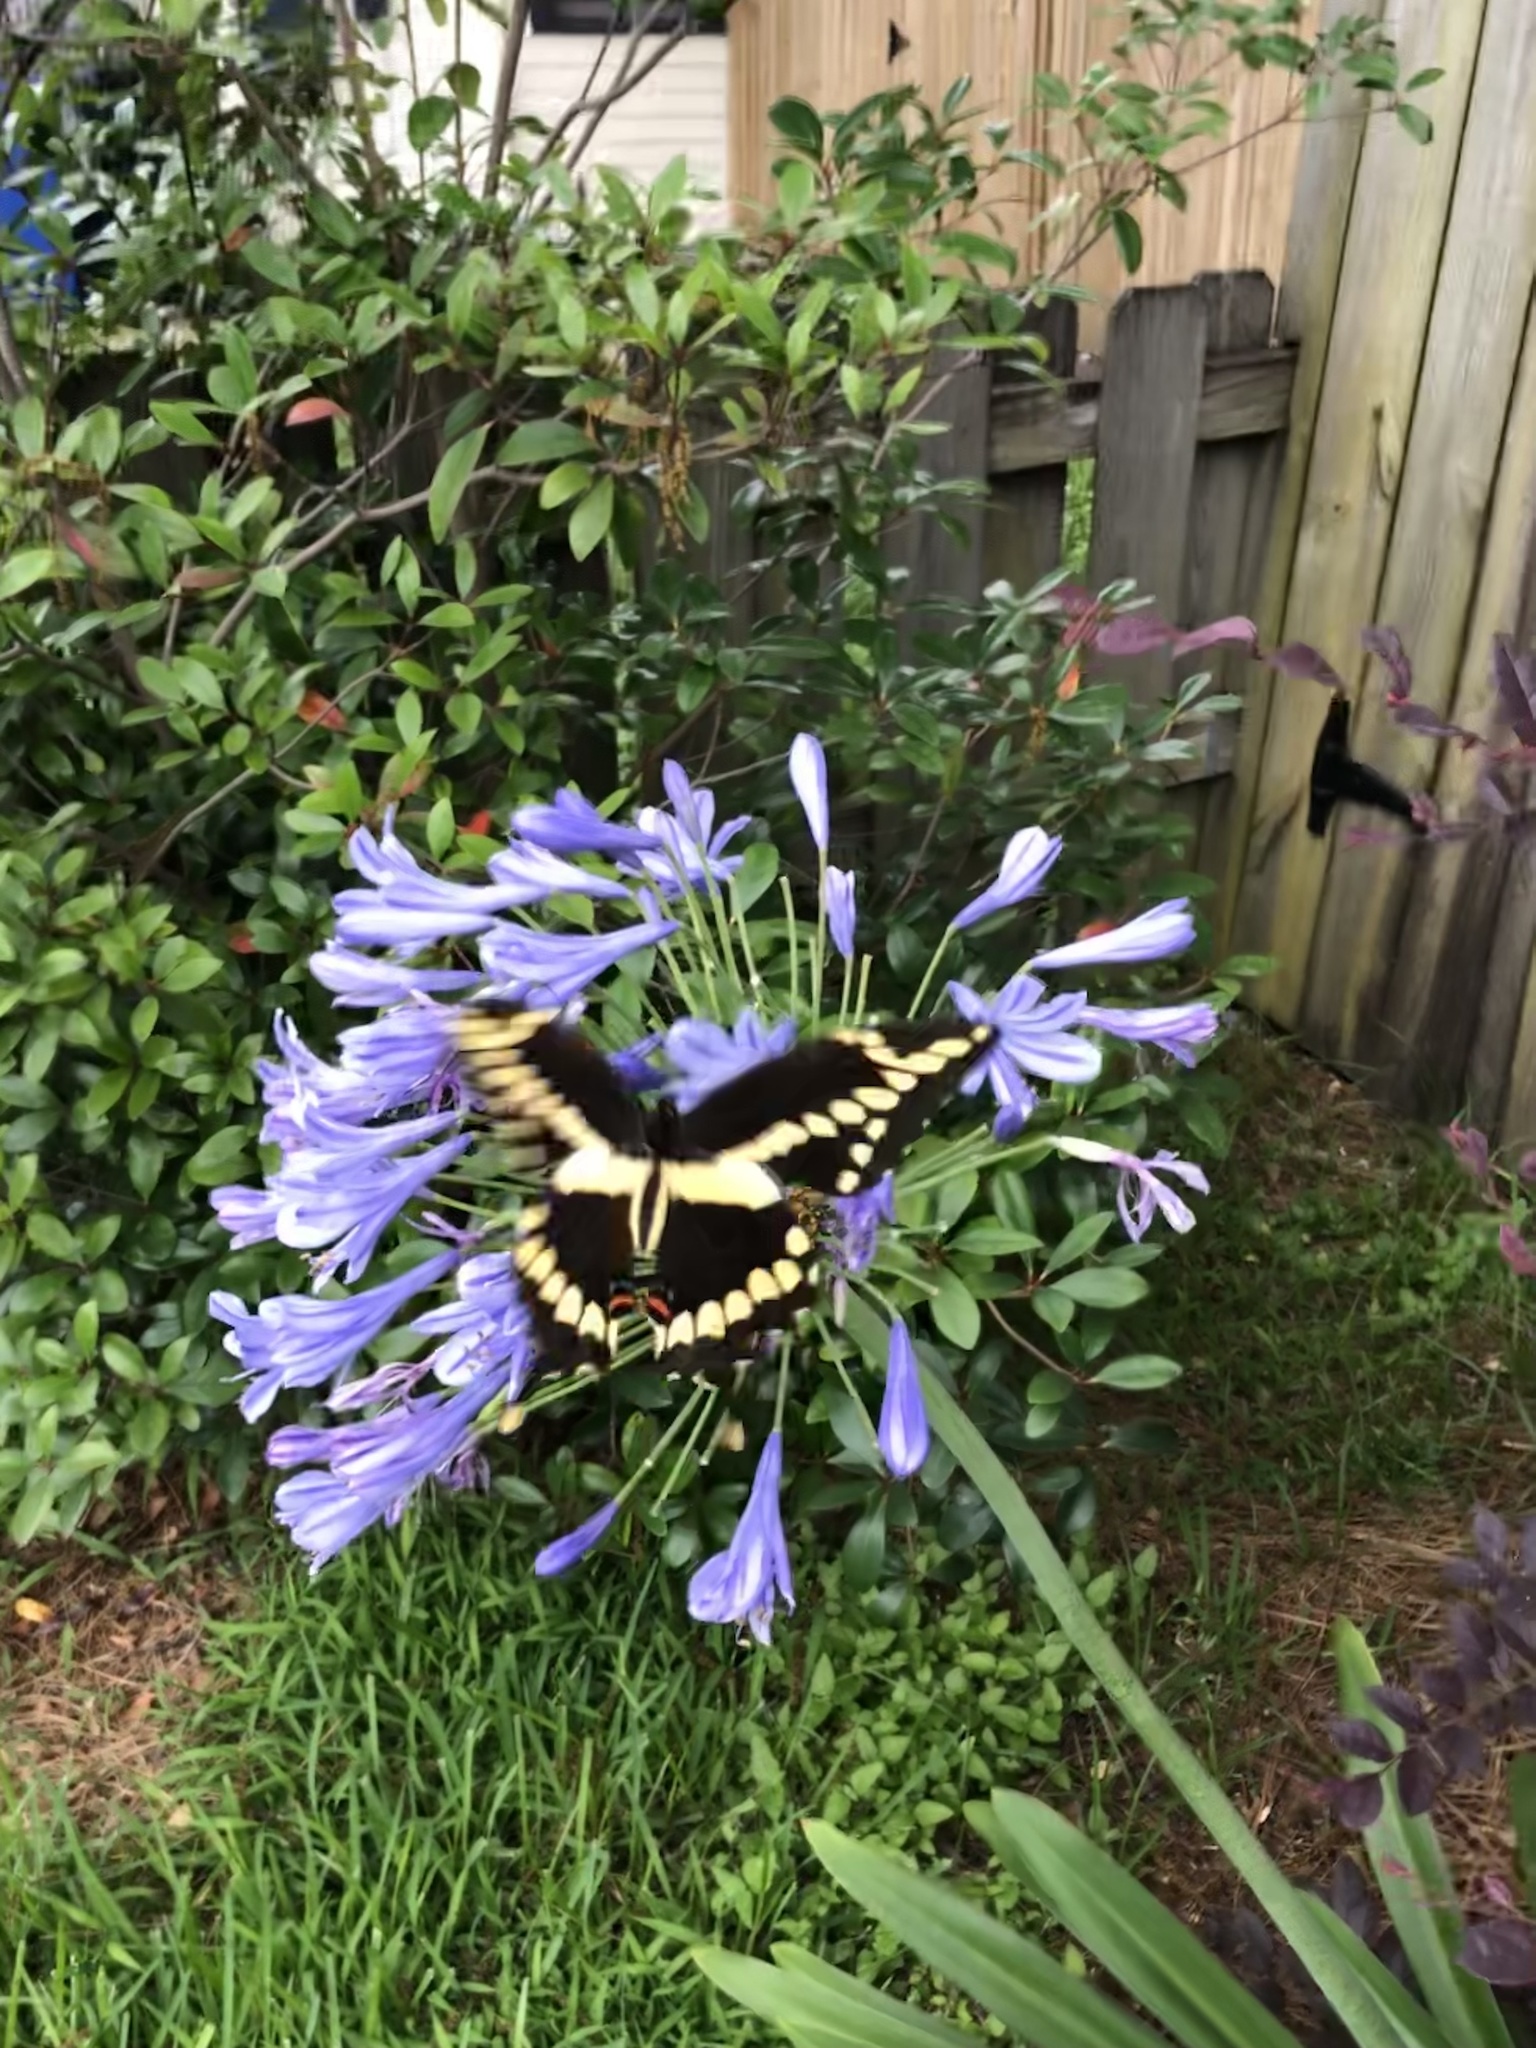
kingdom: Animalia
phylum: Arthropoda
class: Insecta
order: Lepidoptera
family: Papilionidae
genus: Papilio
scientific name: Papilio cresphontes
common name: Giant swallowtail
